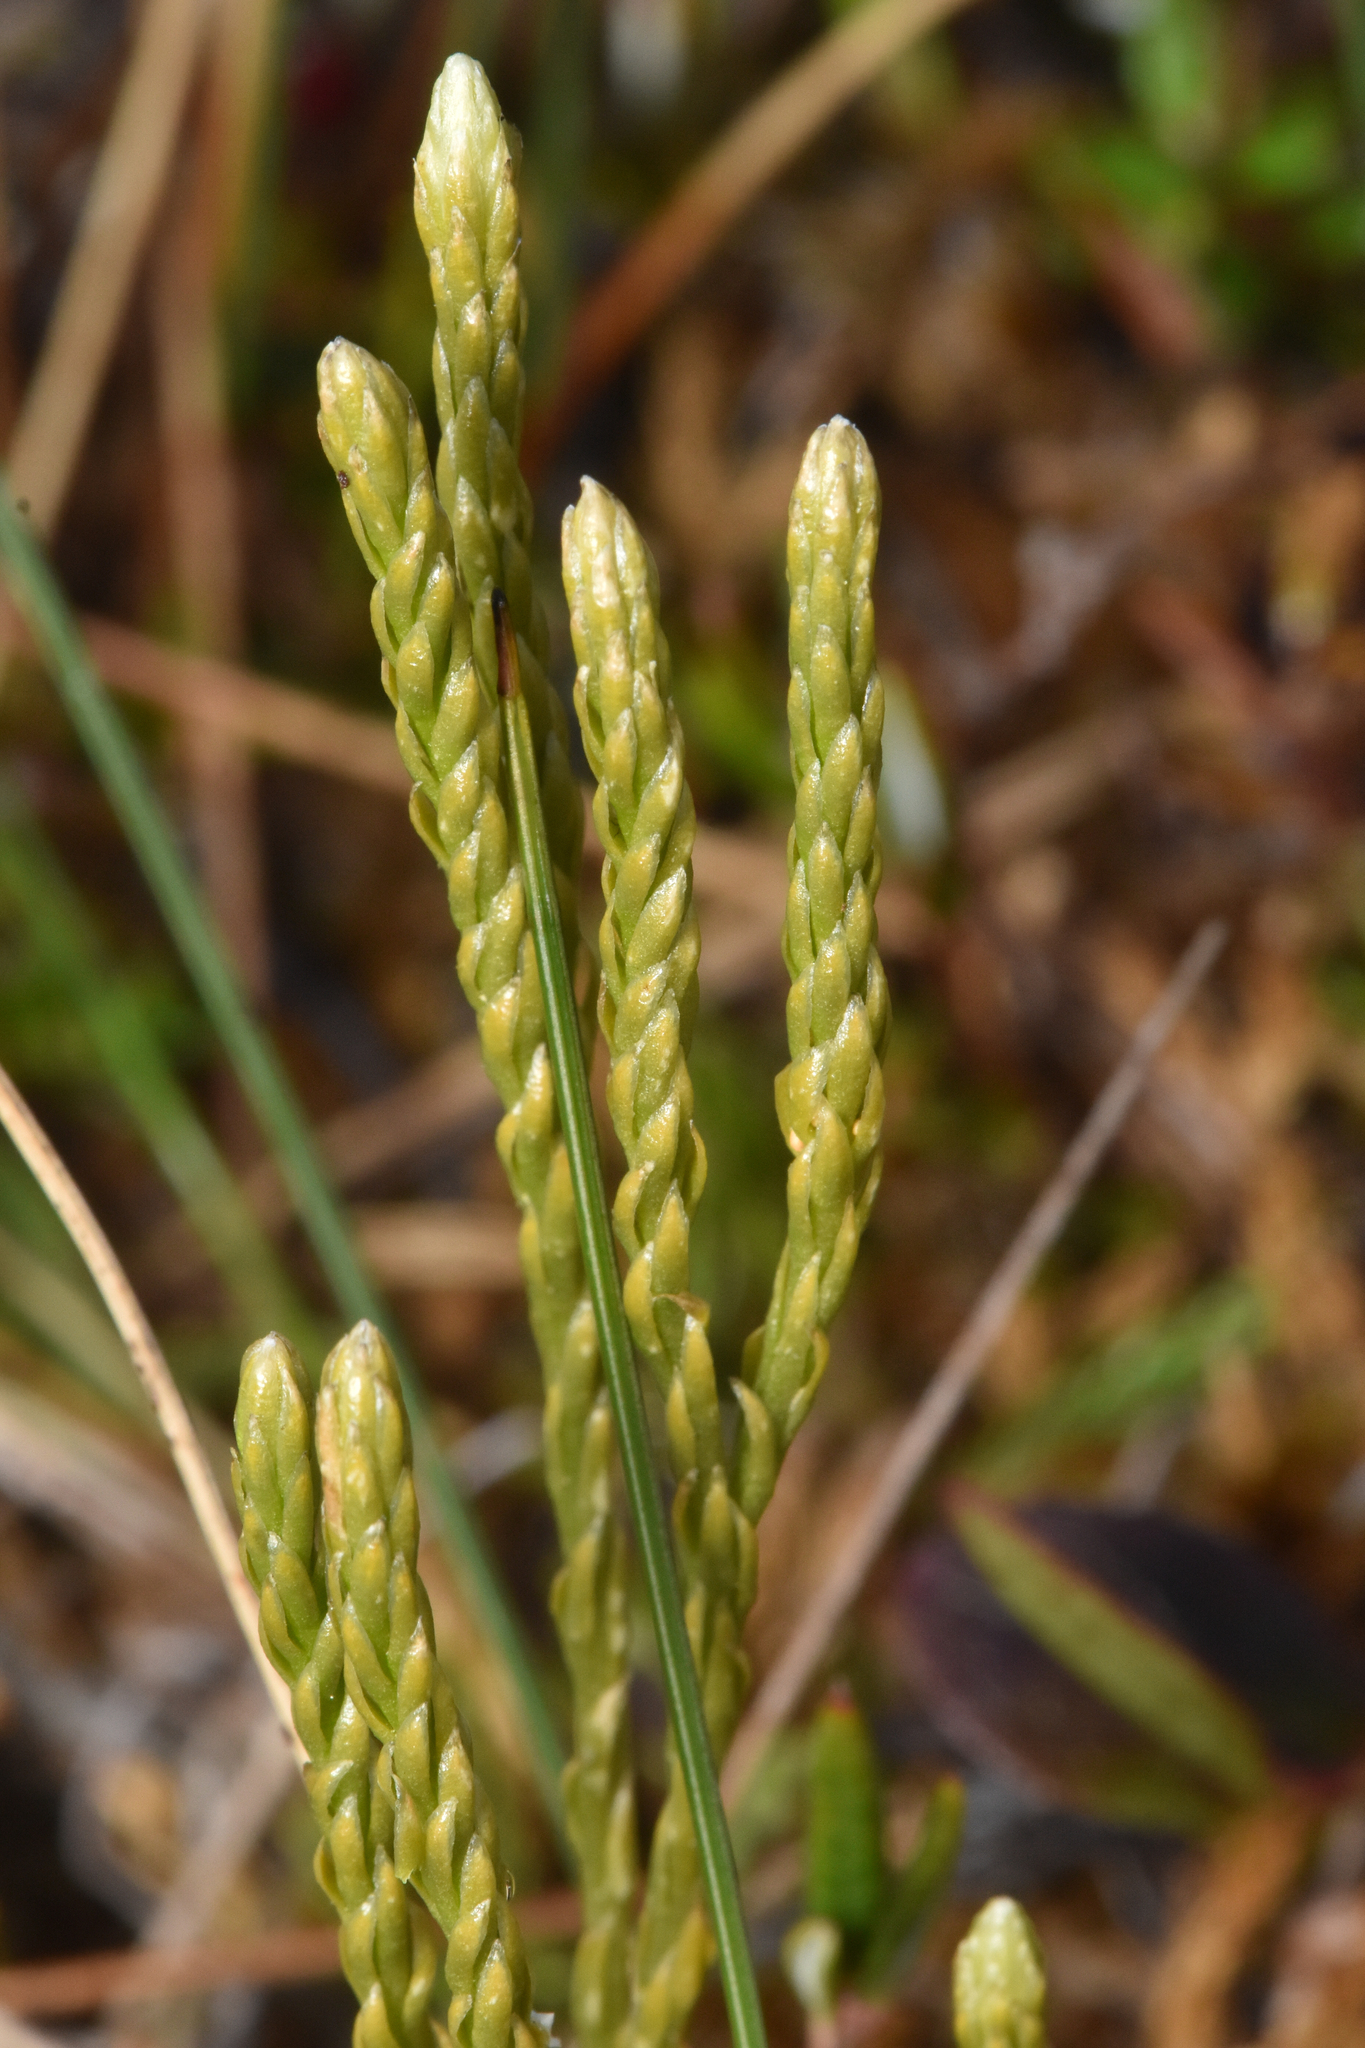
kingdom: Plantae
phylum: Tracheophyta
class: Lycopodiopsida
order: Lycopodiales
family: Lycopodiaceae
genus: Diphasiastrum
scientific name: Diphasiastrum sitchense
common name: Alaska clubmoss
